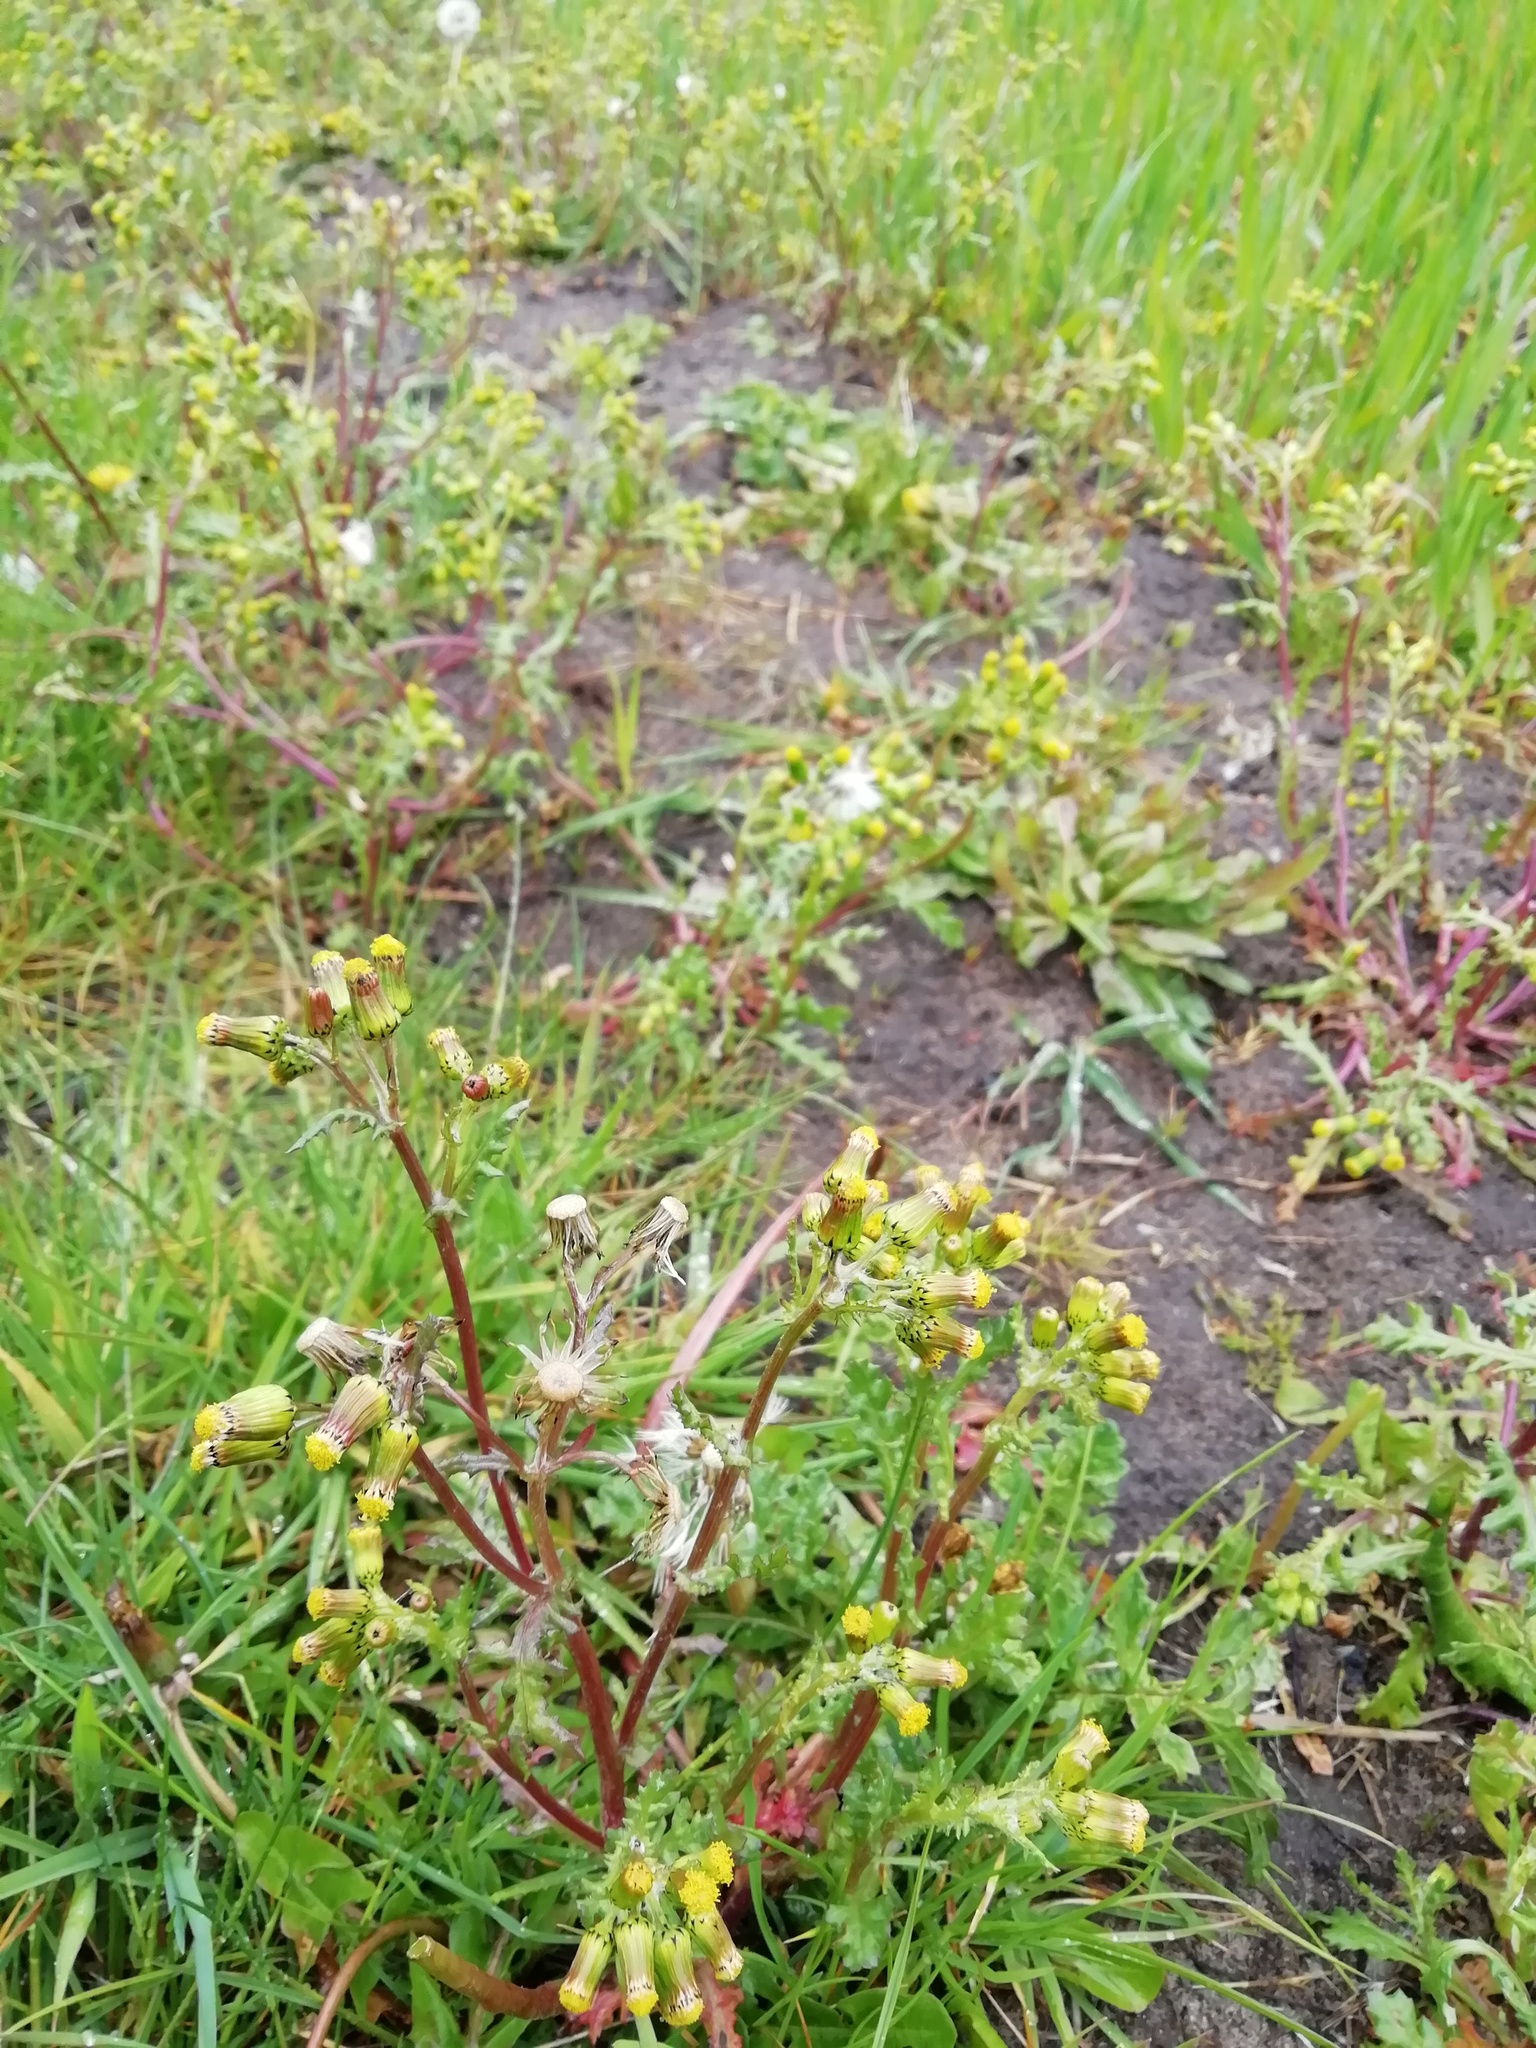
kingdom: Plantae
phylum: Tracheophyta
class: Magnoliopsida
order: Asterales
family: Asteraceae
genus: Senecio
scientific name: Senecio vulgaris
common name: Old-man-in-the-spring
